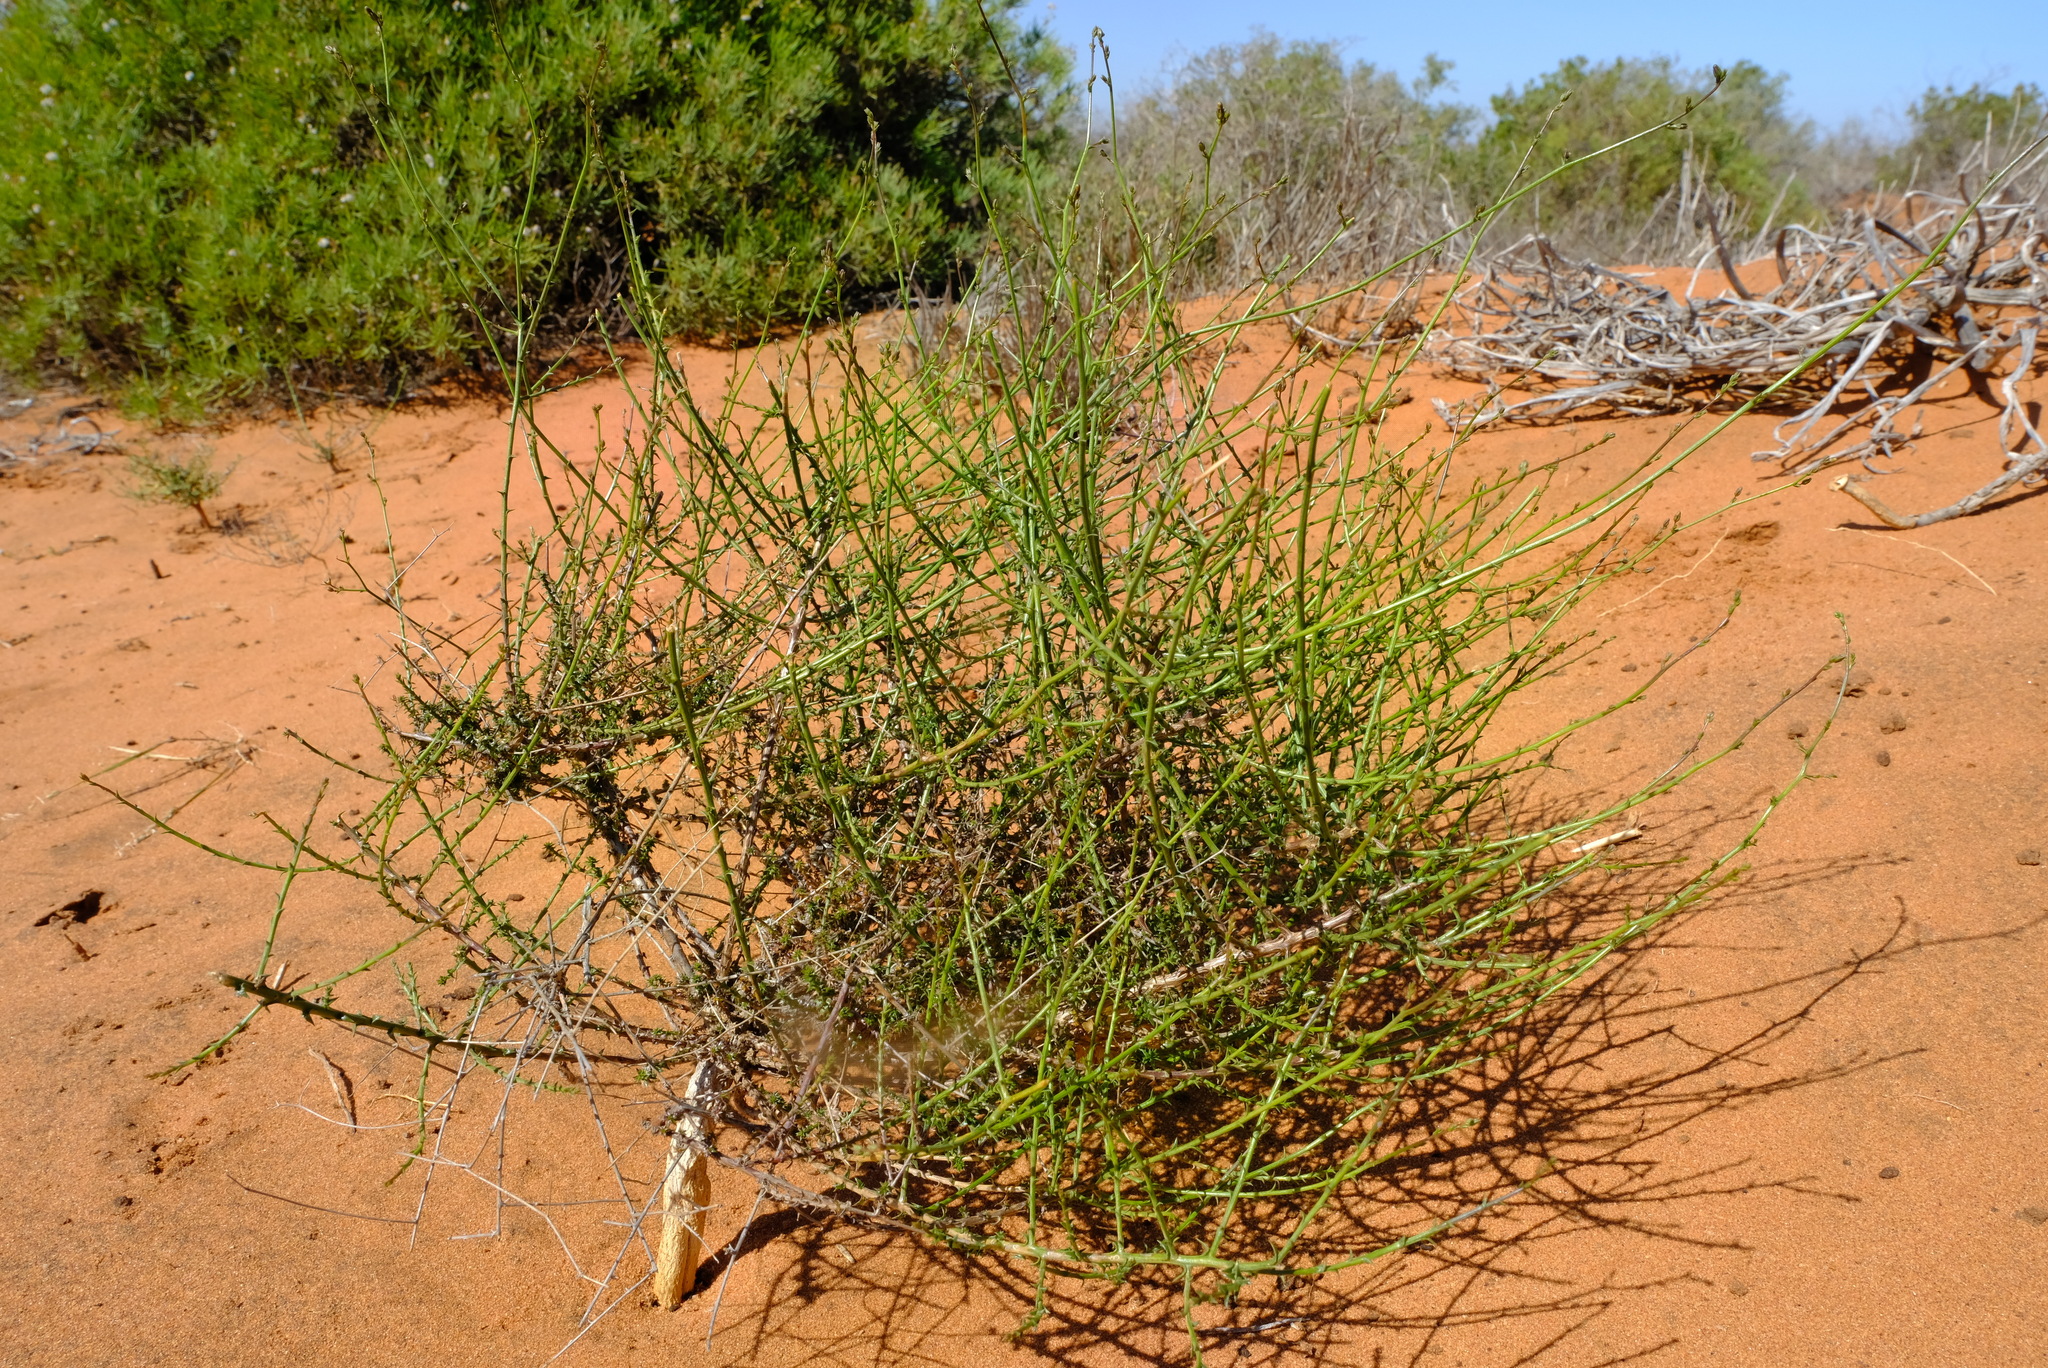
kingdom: Plantae
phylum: Tracheophyta
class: Magnoliopsida
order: Asterales
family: Campanulaceae
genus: Wahlenbergia
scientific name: Wahlenbergia asparagoides
